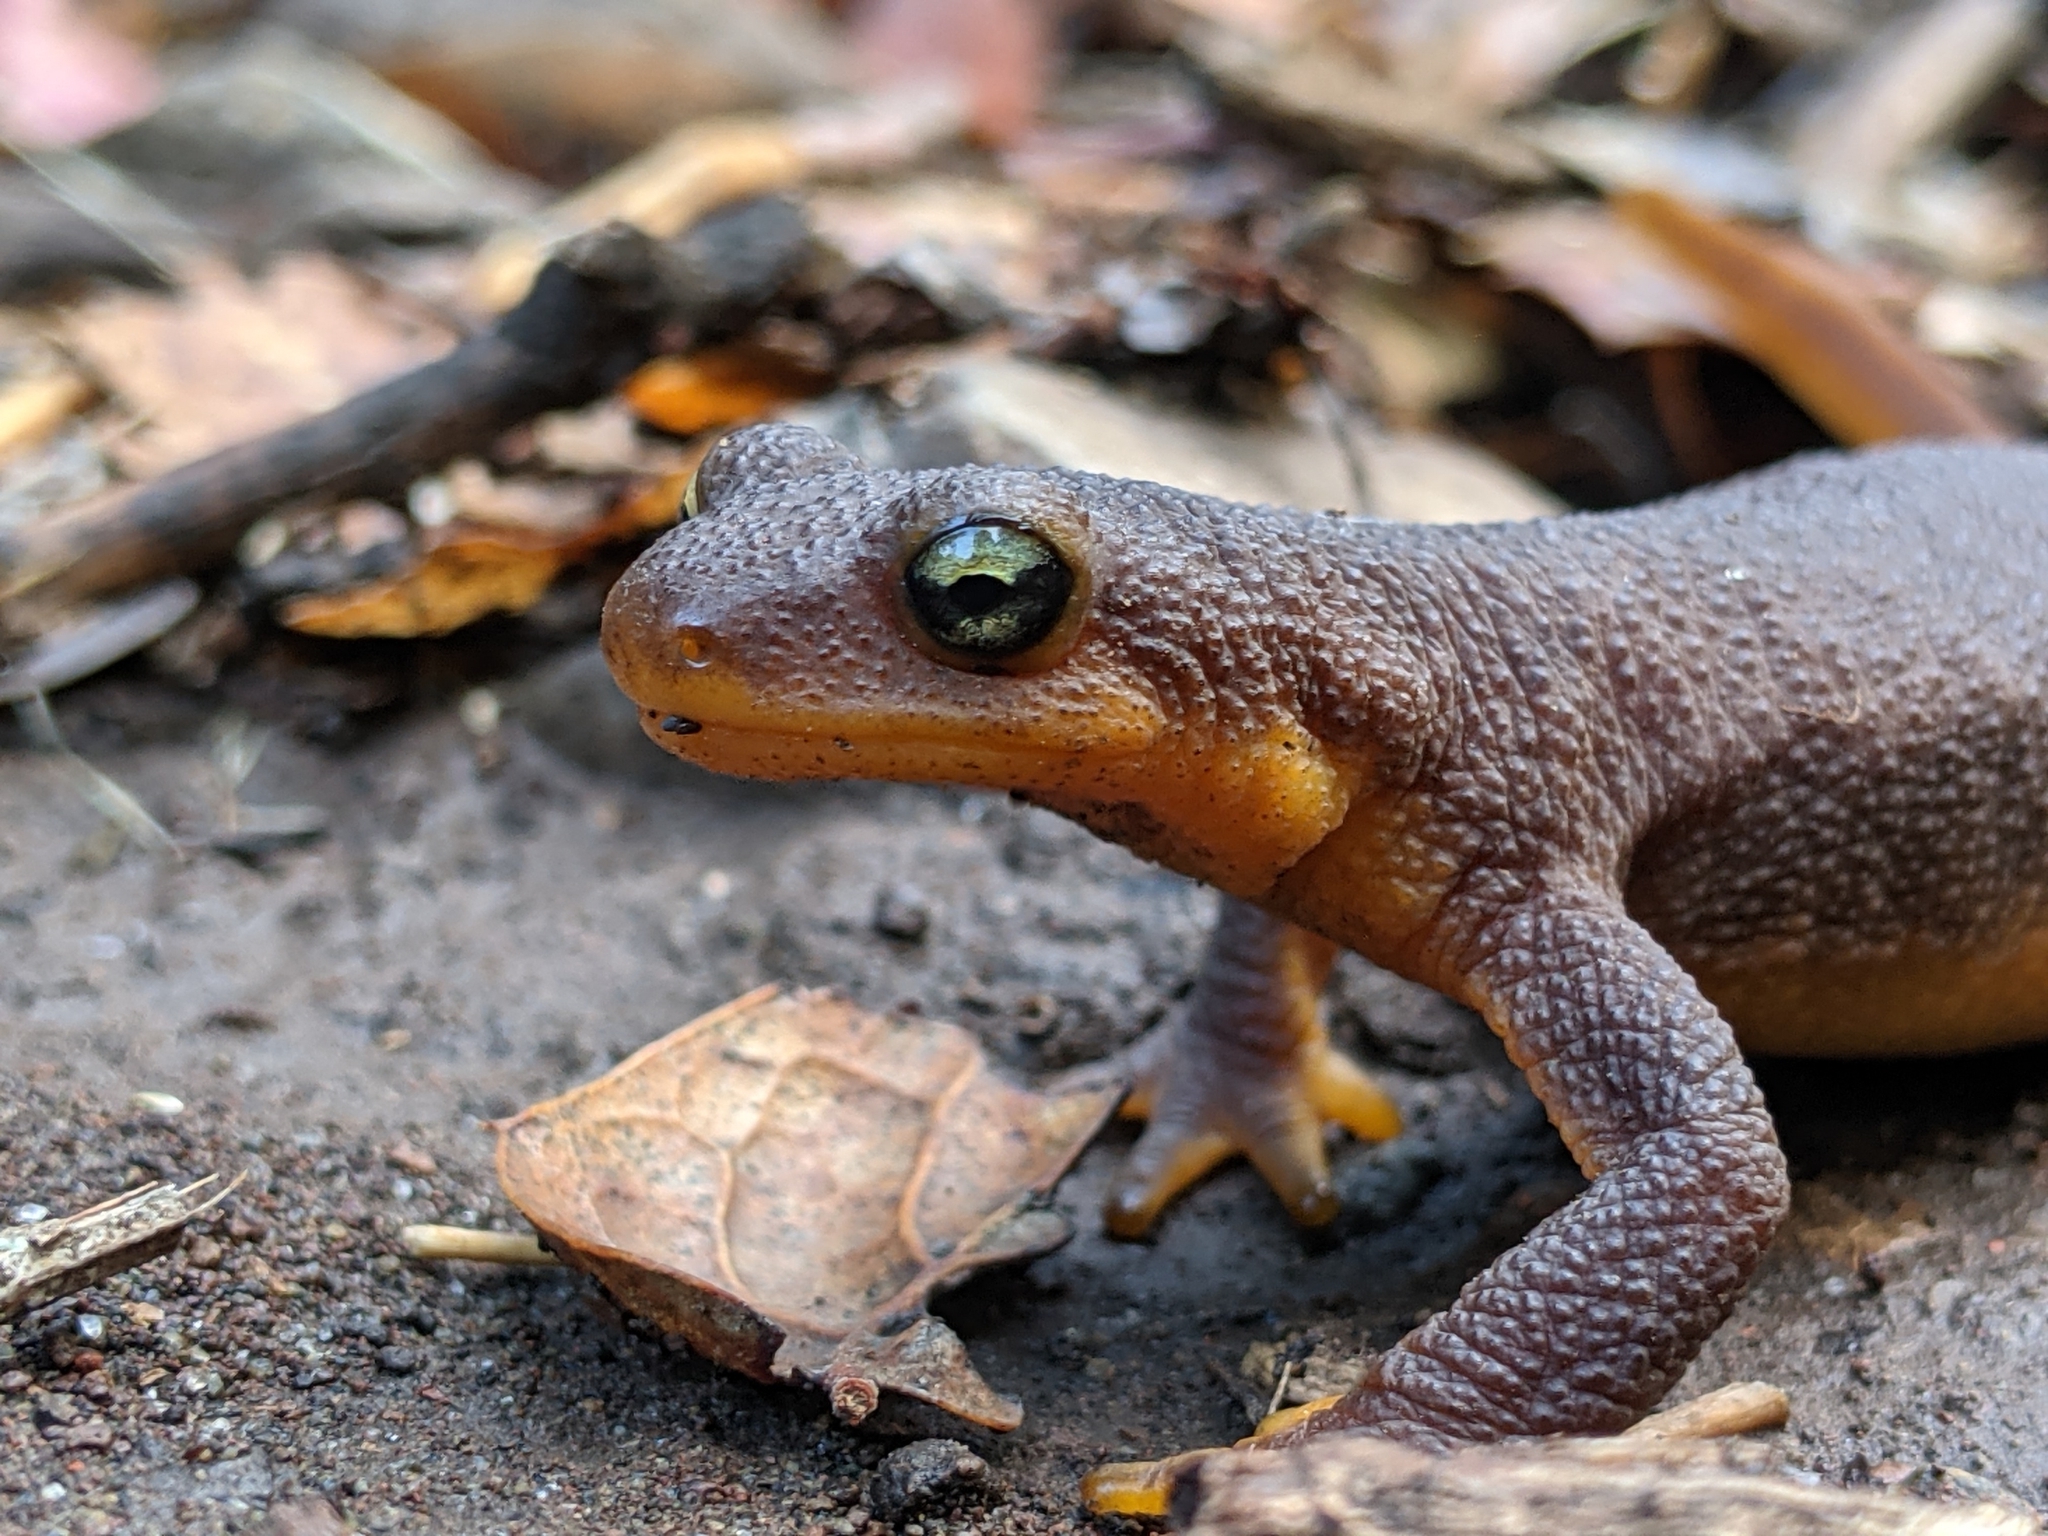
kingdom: Animalia
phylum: Chordata
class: Amphibia
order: Caudata
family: Salamandridae
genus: Taricha
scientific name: Taricha torosa
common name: California newt
